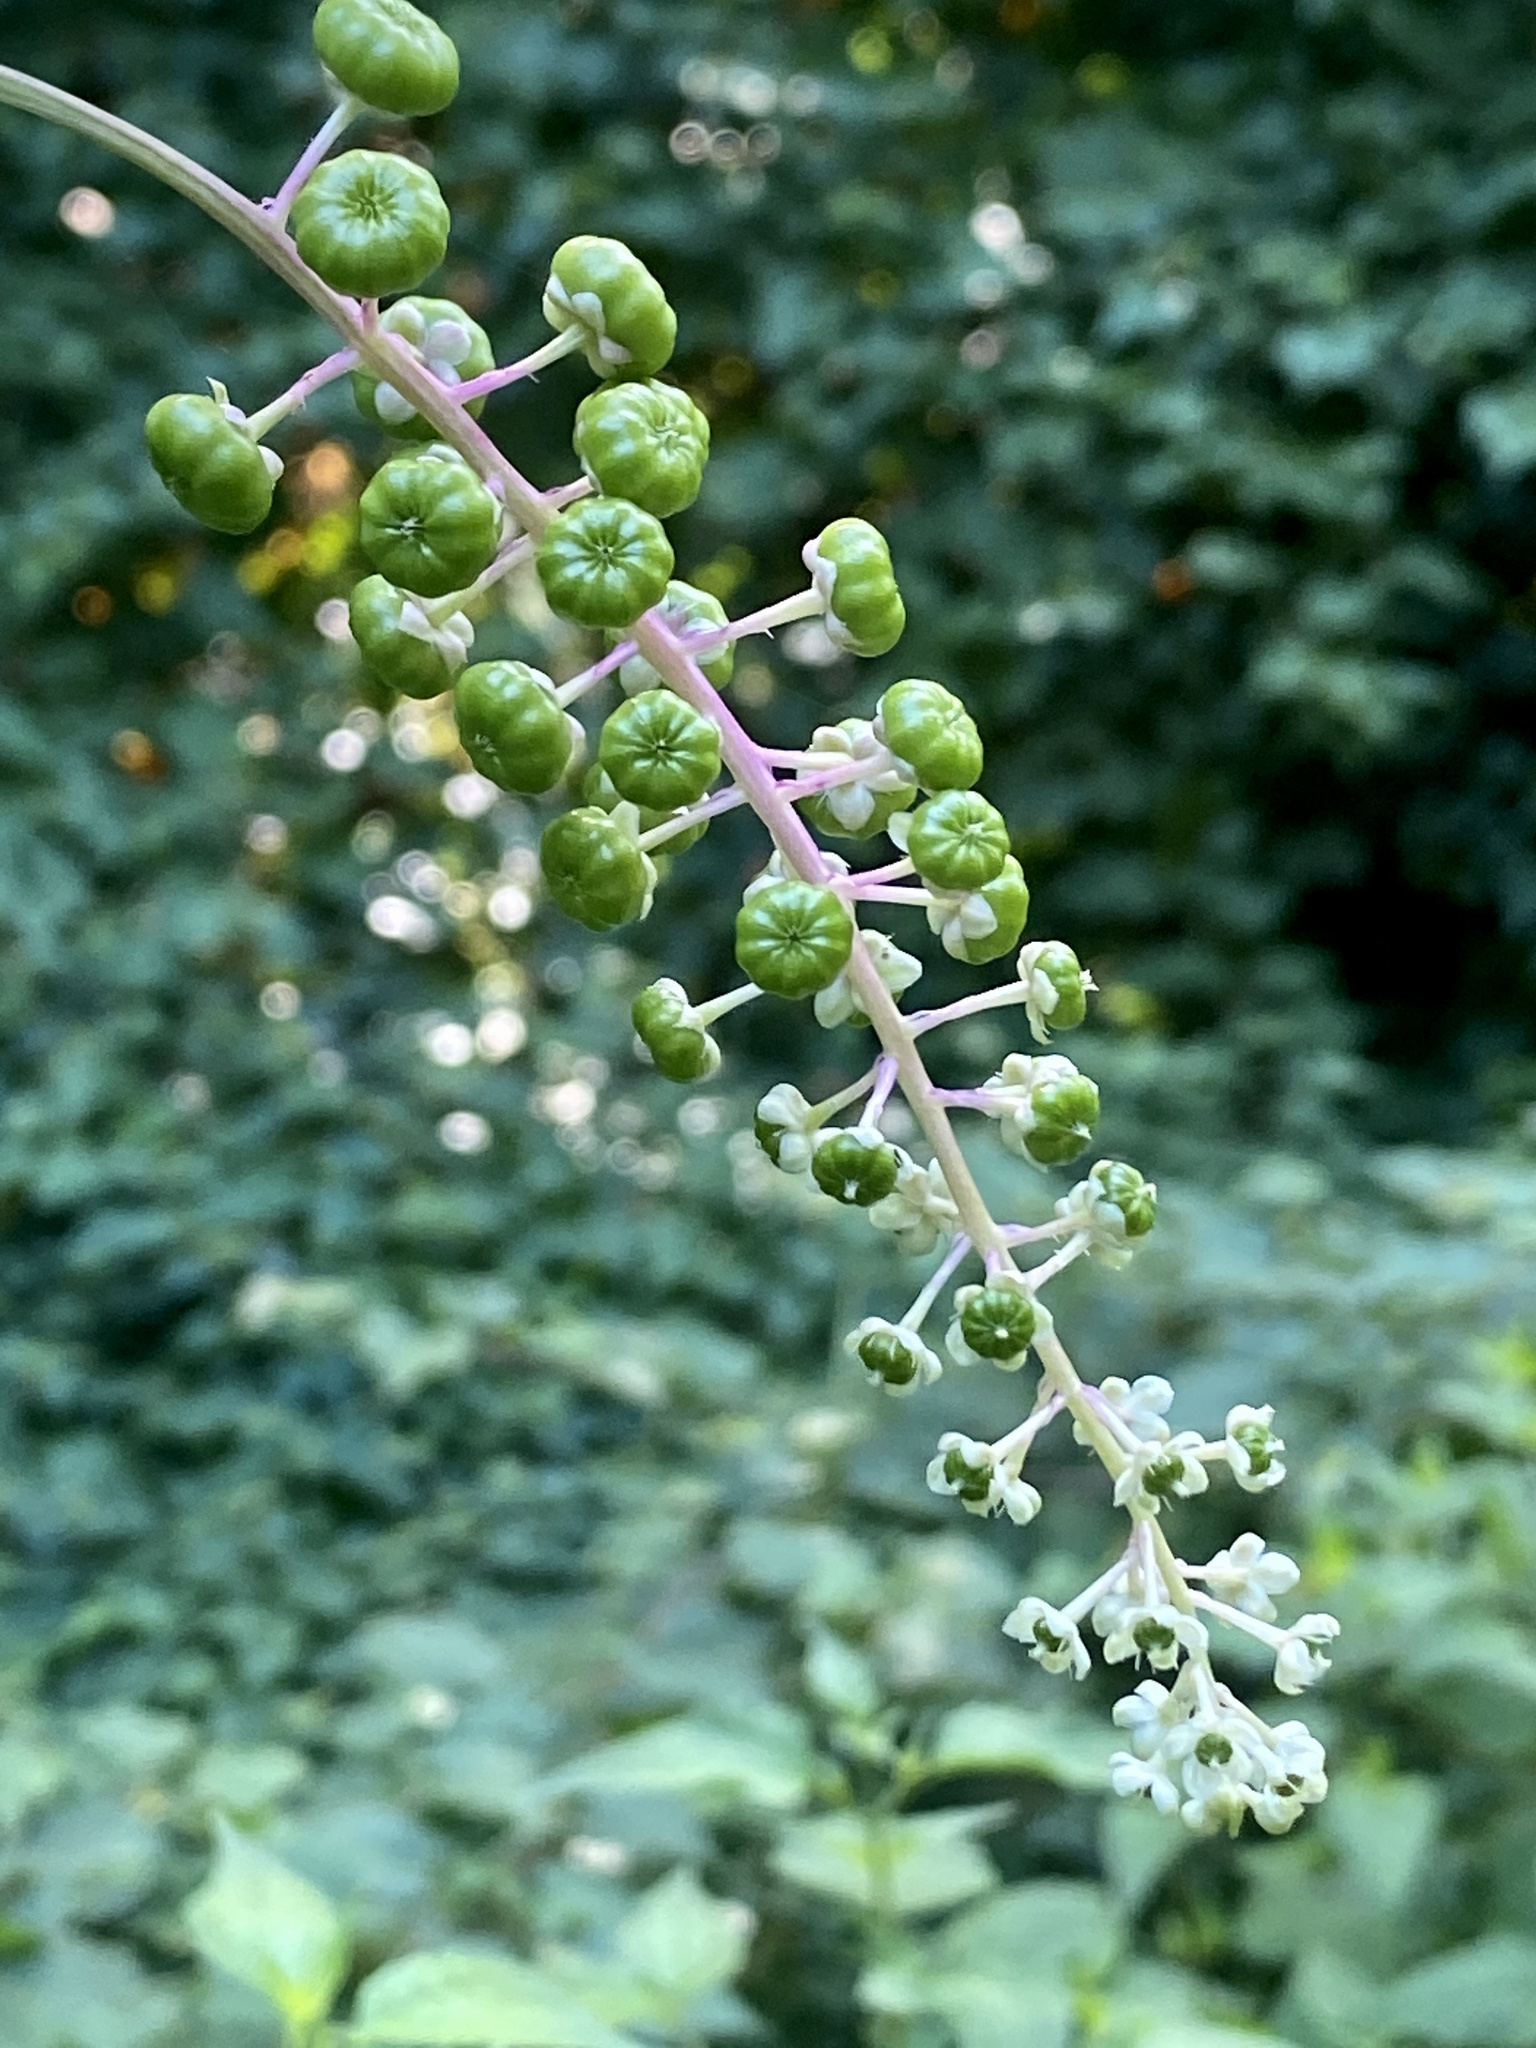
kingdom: Plantae
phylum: Tracheophyta
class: Magnoliopsida
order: Caryophyllales
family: Phytolaccaceae
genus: Phytolacca
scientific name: Phytolacca americana
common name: American pokeweed
